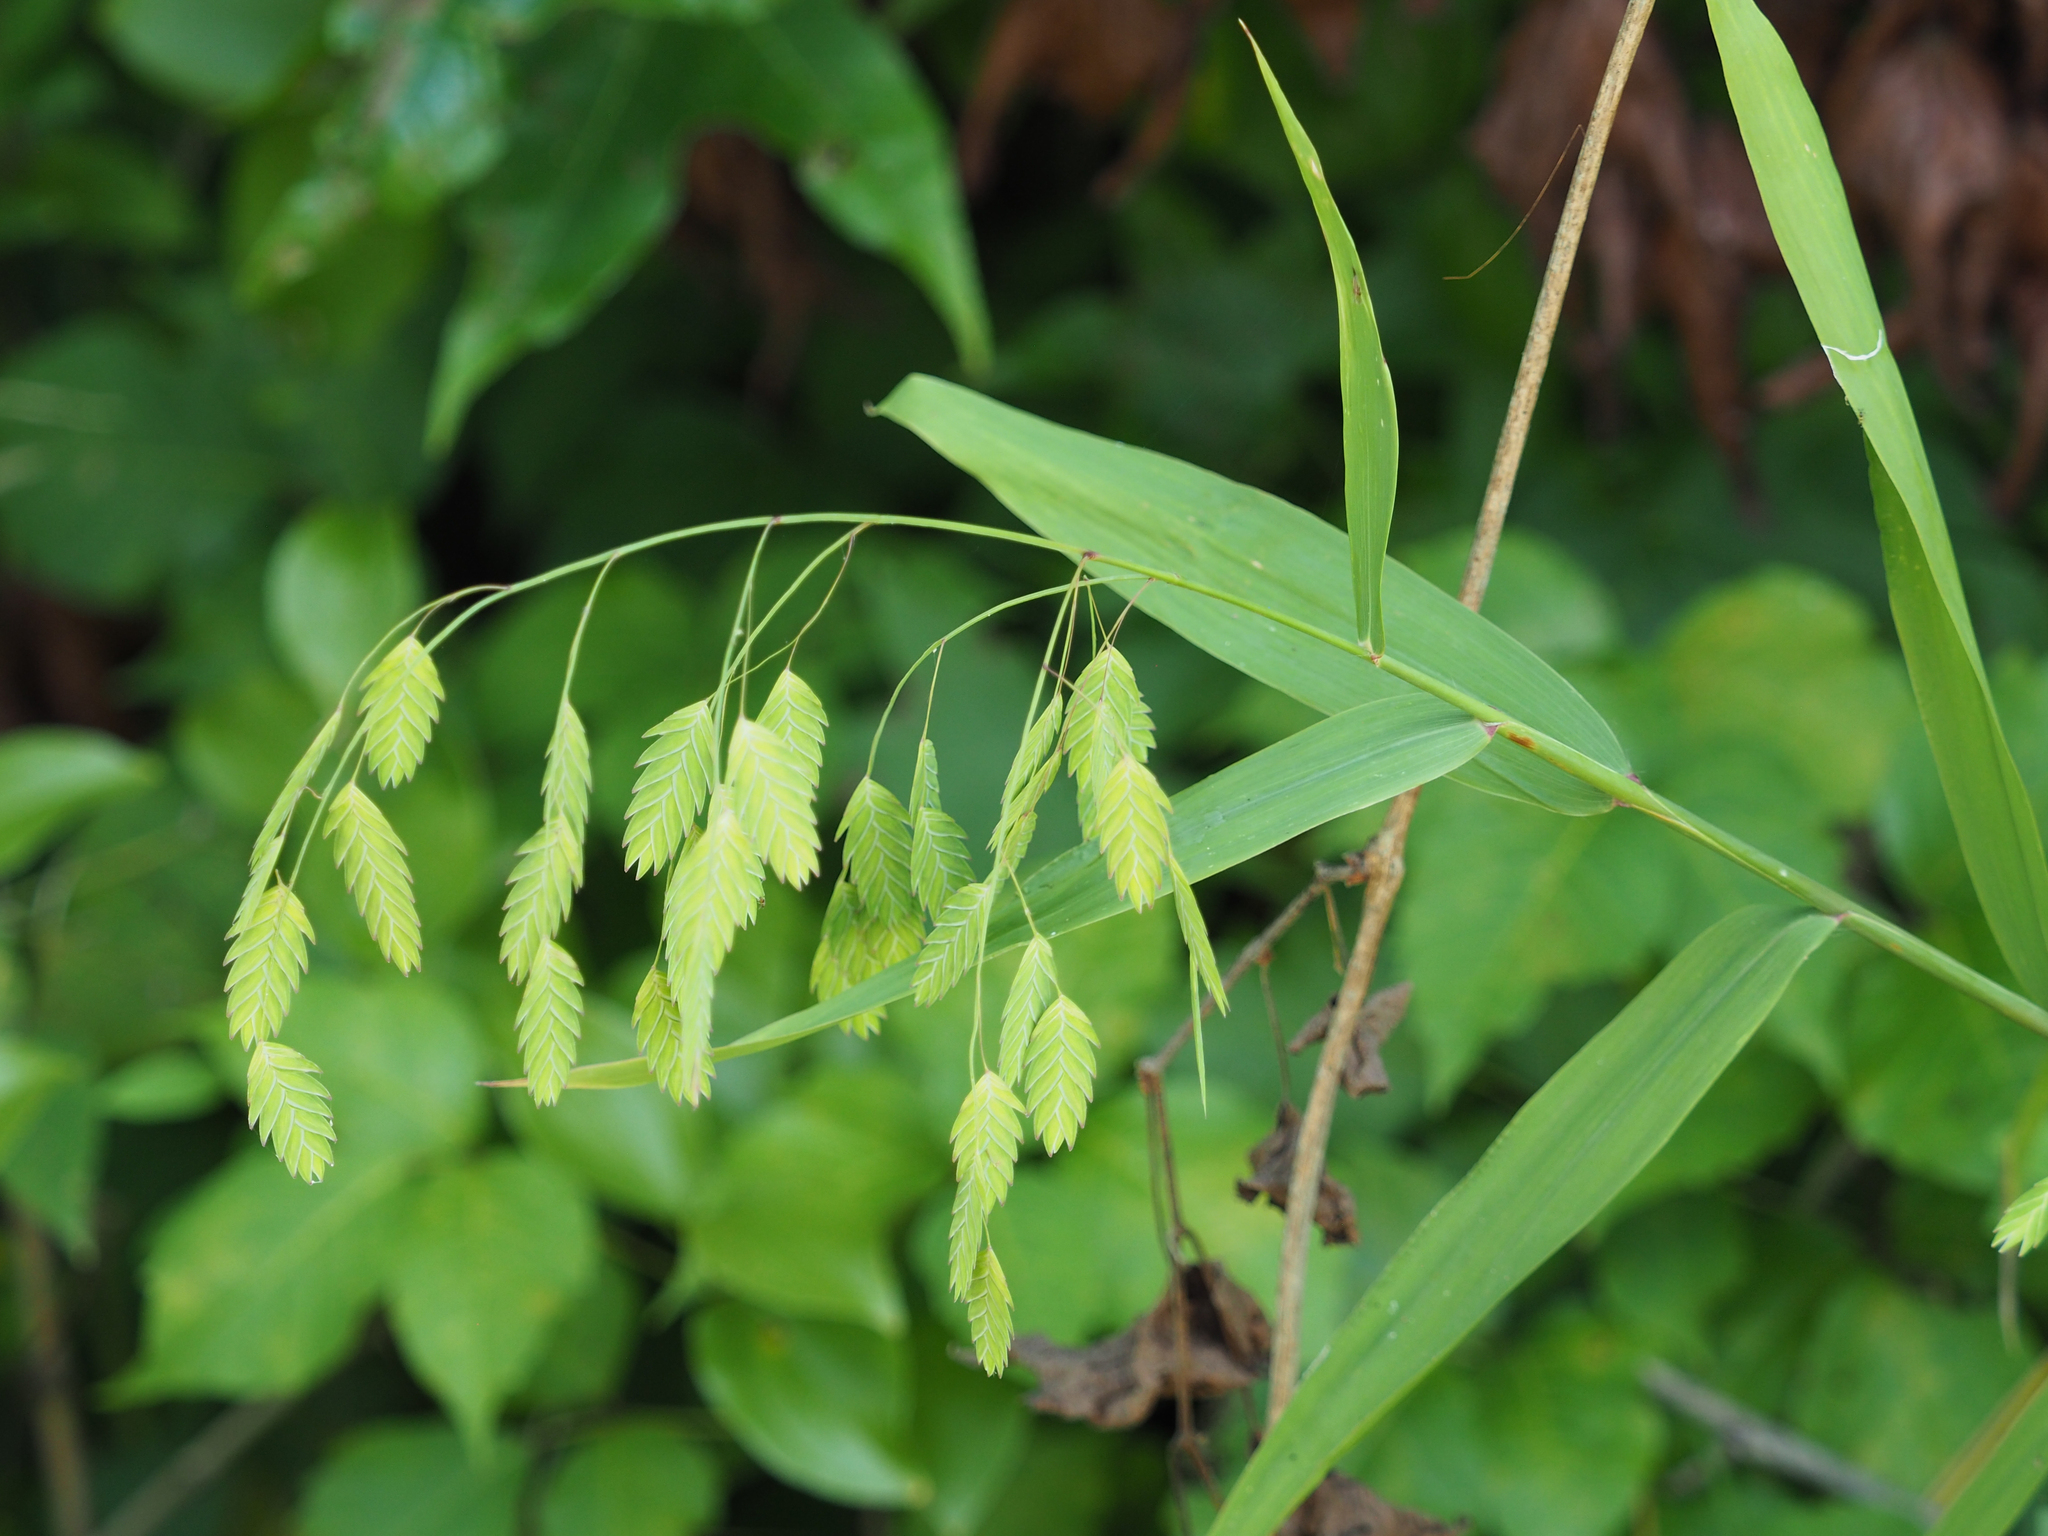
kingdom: Plantae
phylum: Tracheophyta
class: Liliopsida
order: Poales
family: Poaceae
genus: Chasmanthium
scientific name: Chasmanthium latifolium
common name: Broad-leaved chasmanthium
